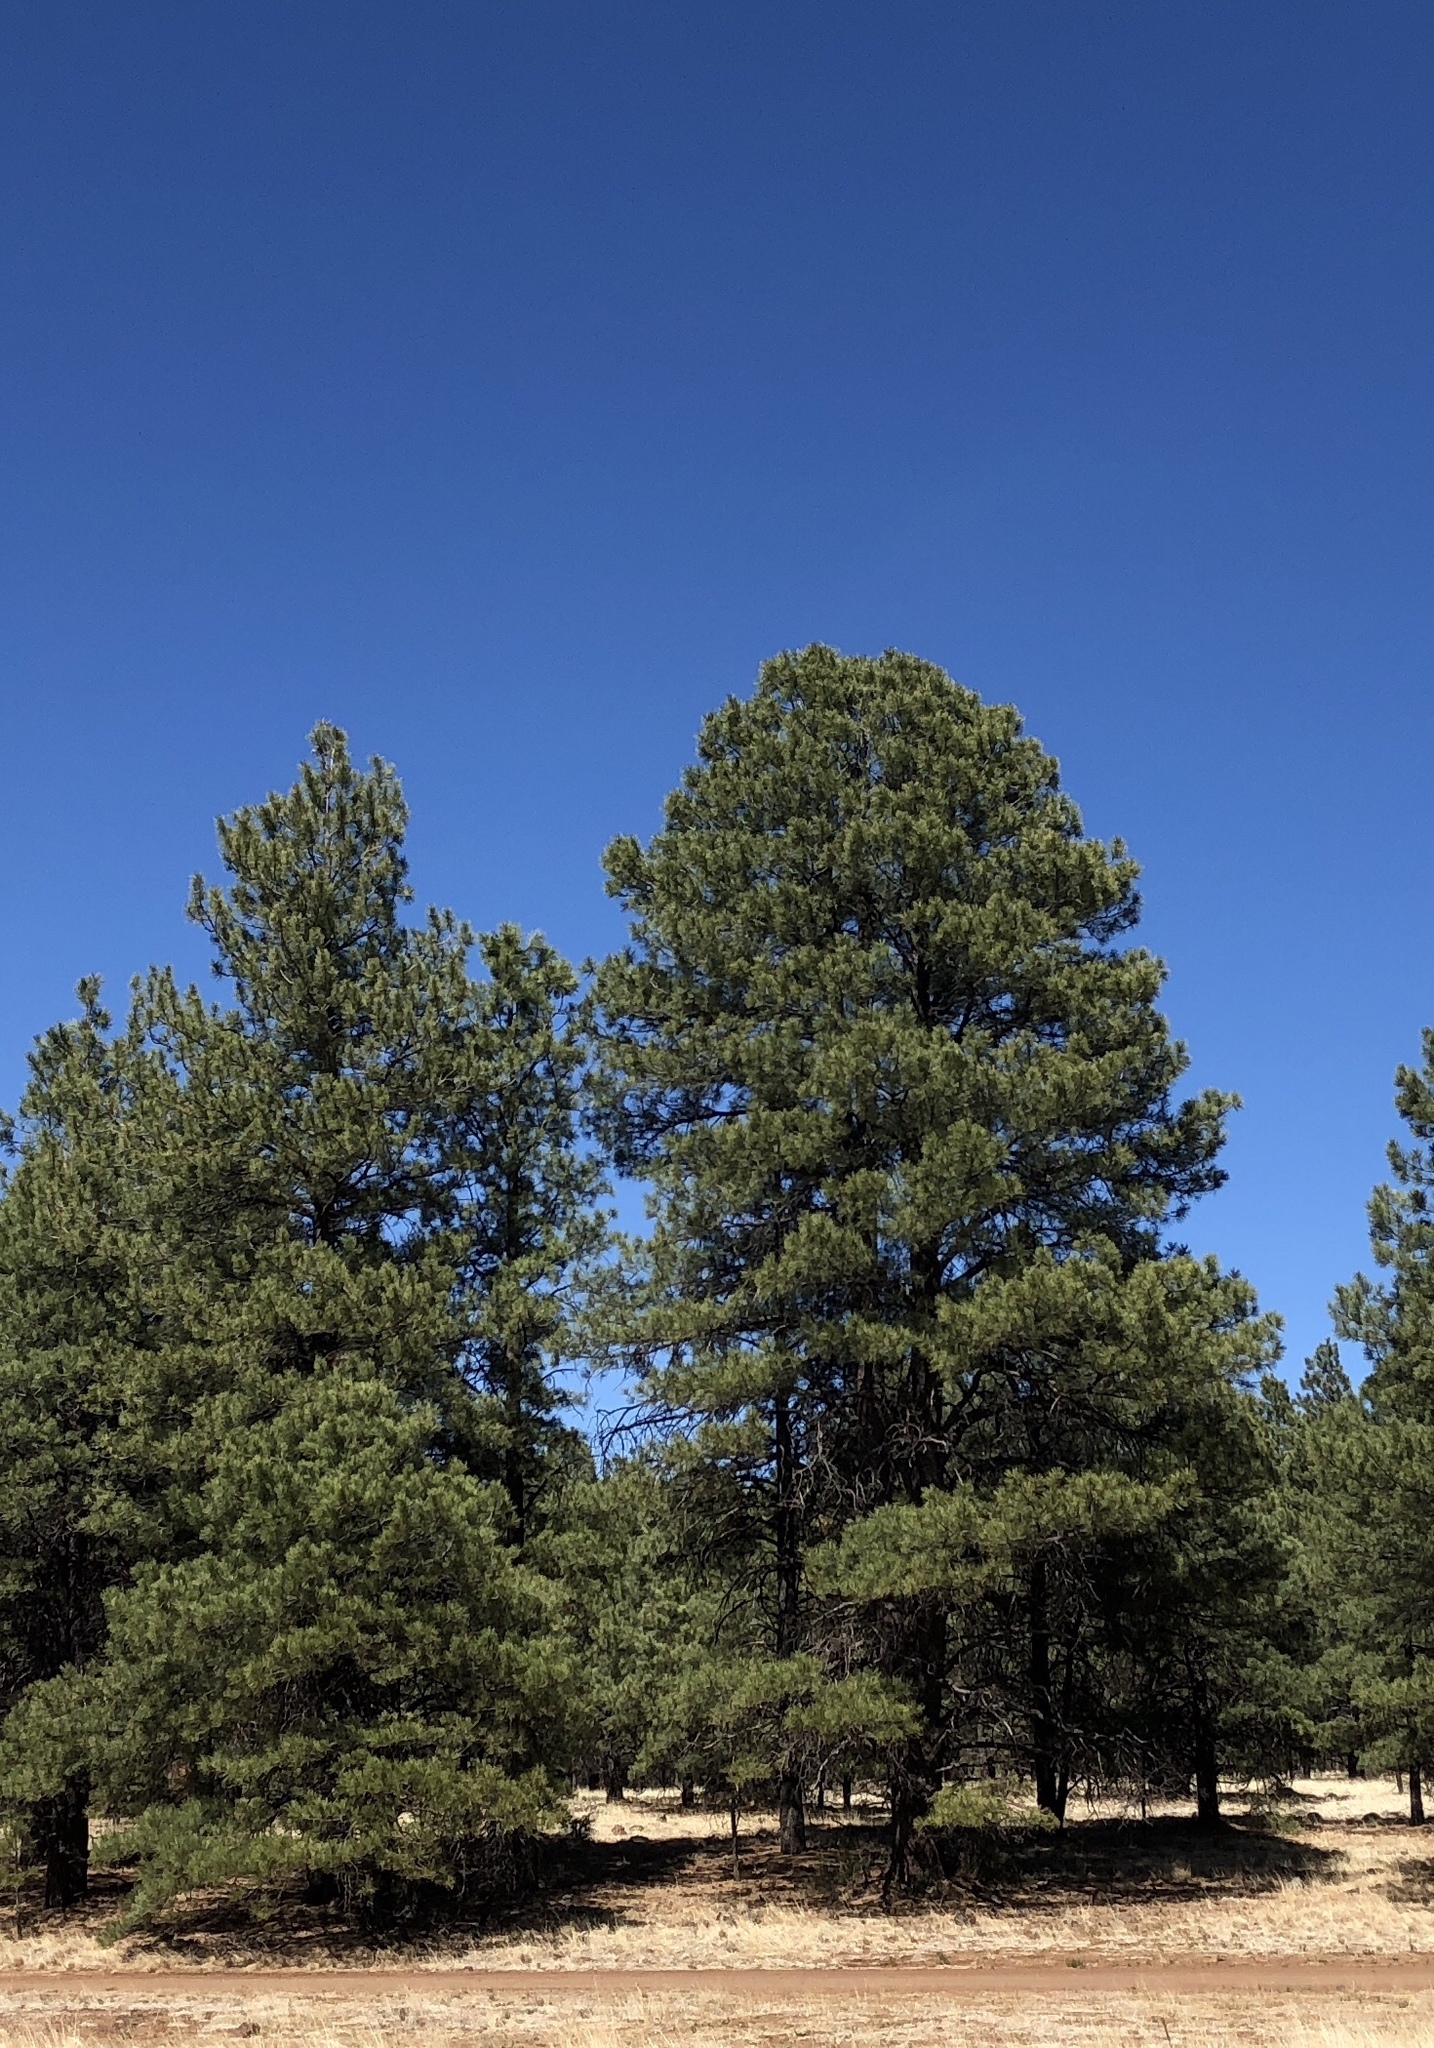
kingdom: Plantae
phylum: Tracheophyta
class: Pinopsida
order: Pinales
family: Pinaceae
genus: Pinus
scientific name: Pinus ponderosa
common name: Western yellow-pine
